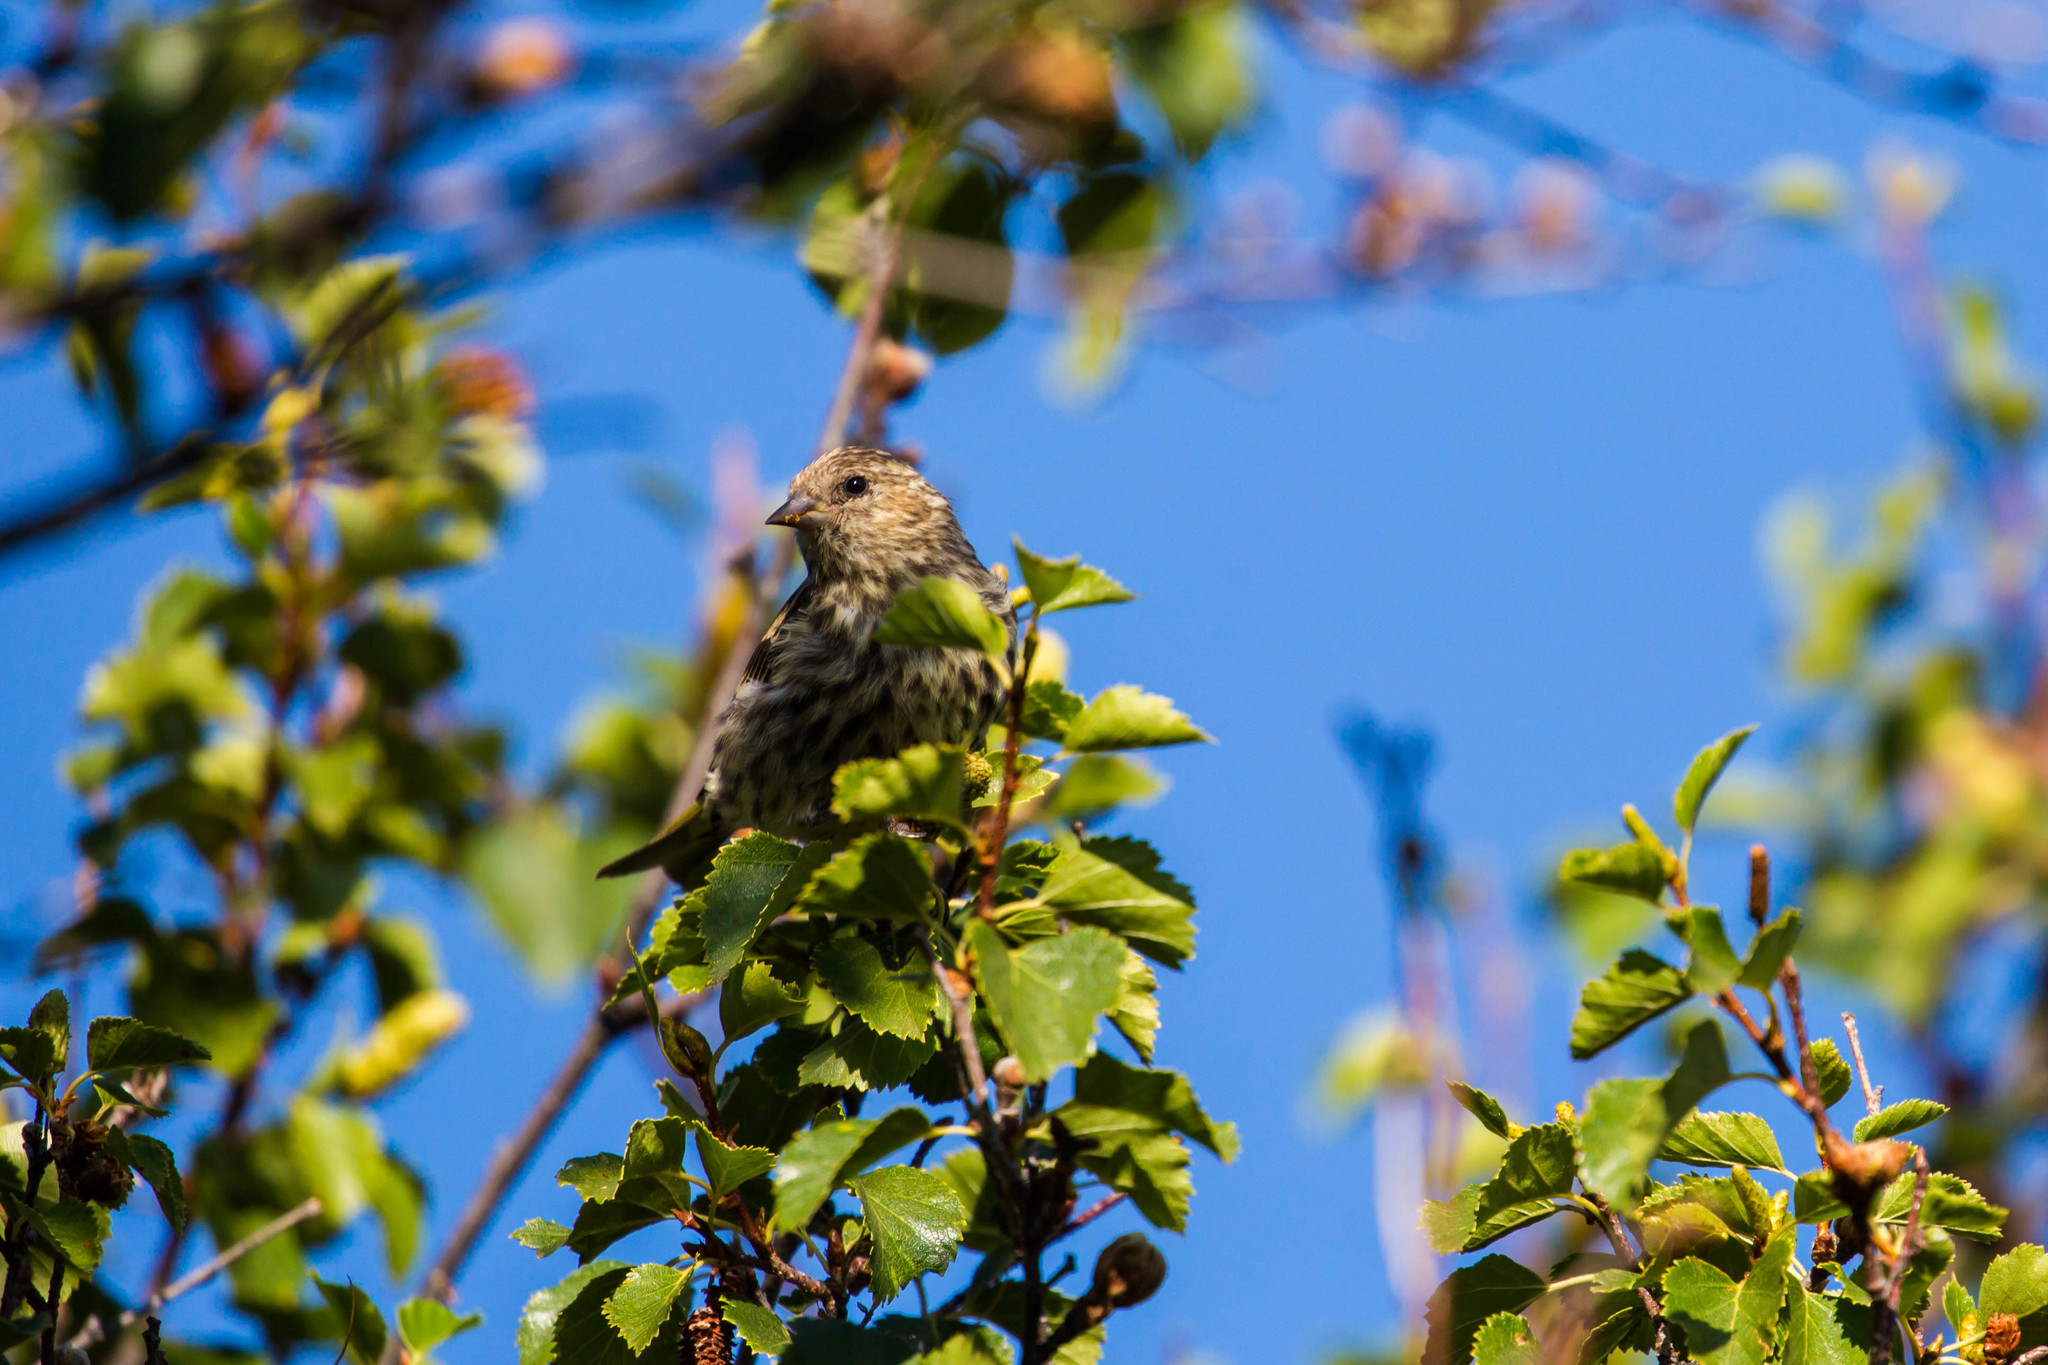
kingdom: Animalia
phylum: Chordata
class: Aves
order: Passeriformes
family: Fringillidae
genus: Spinus
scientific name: Spinus pinus
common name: Pine siskin
